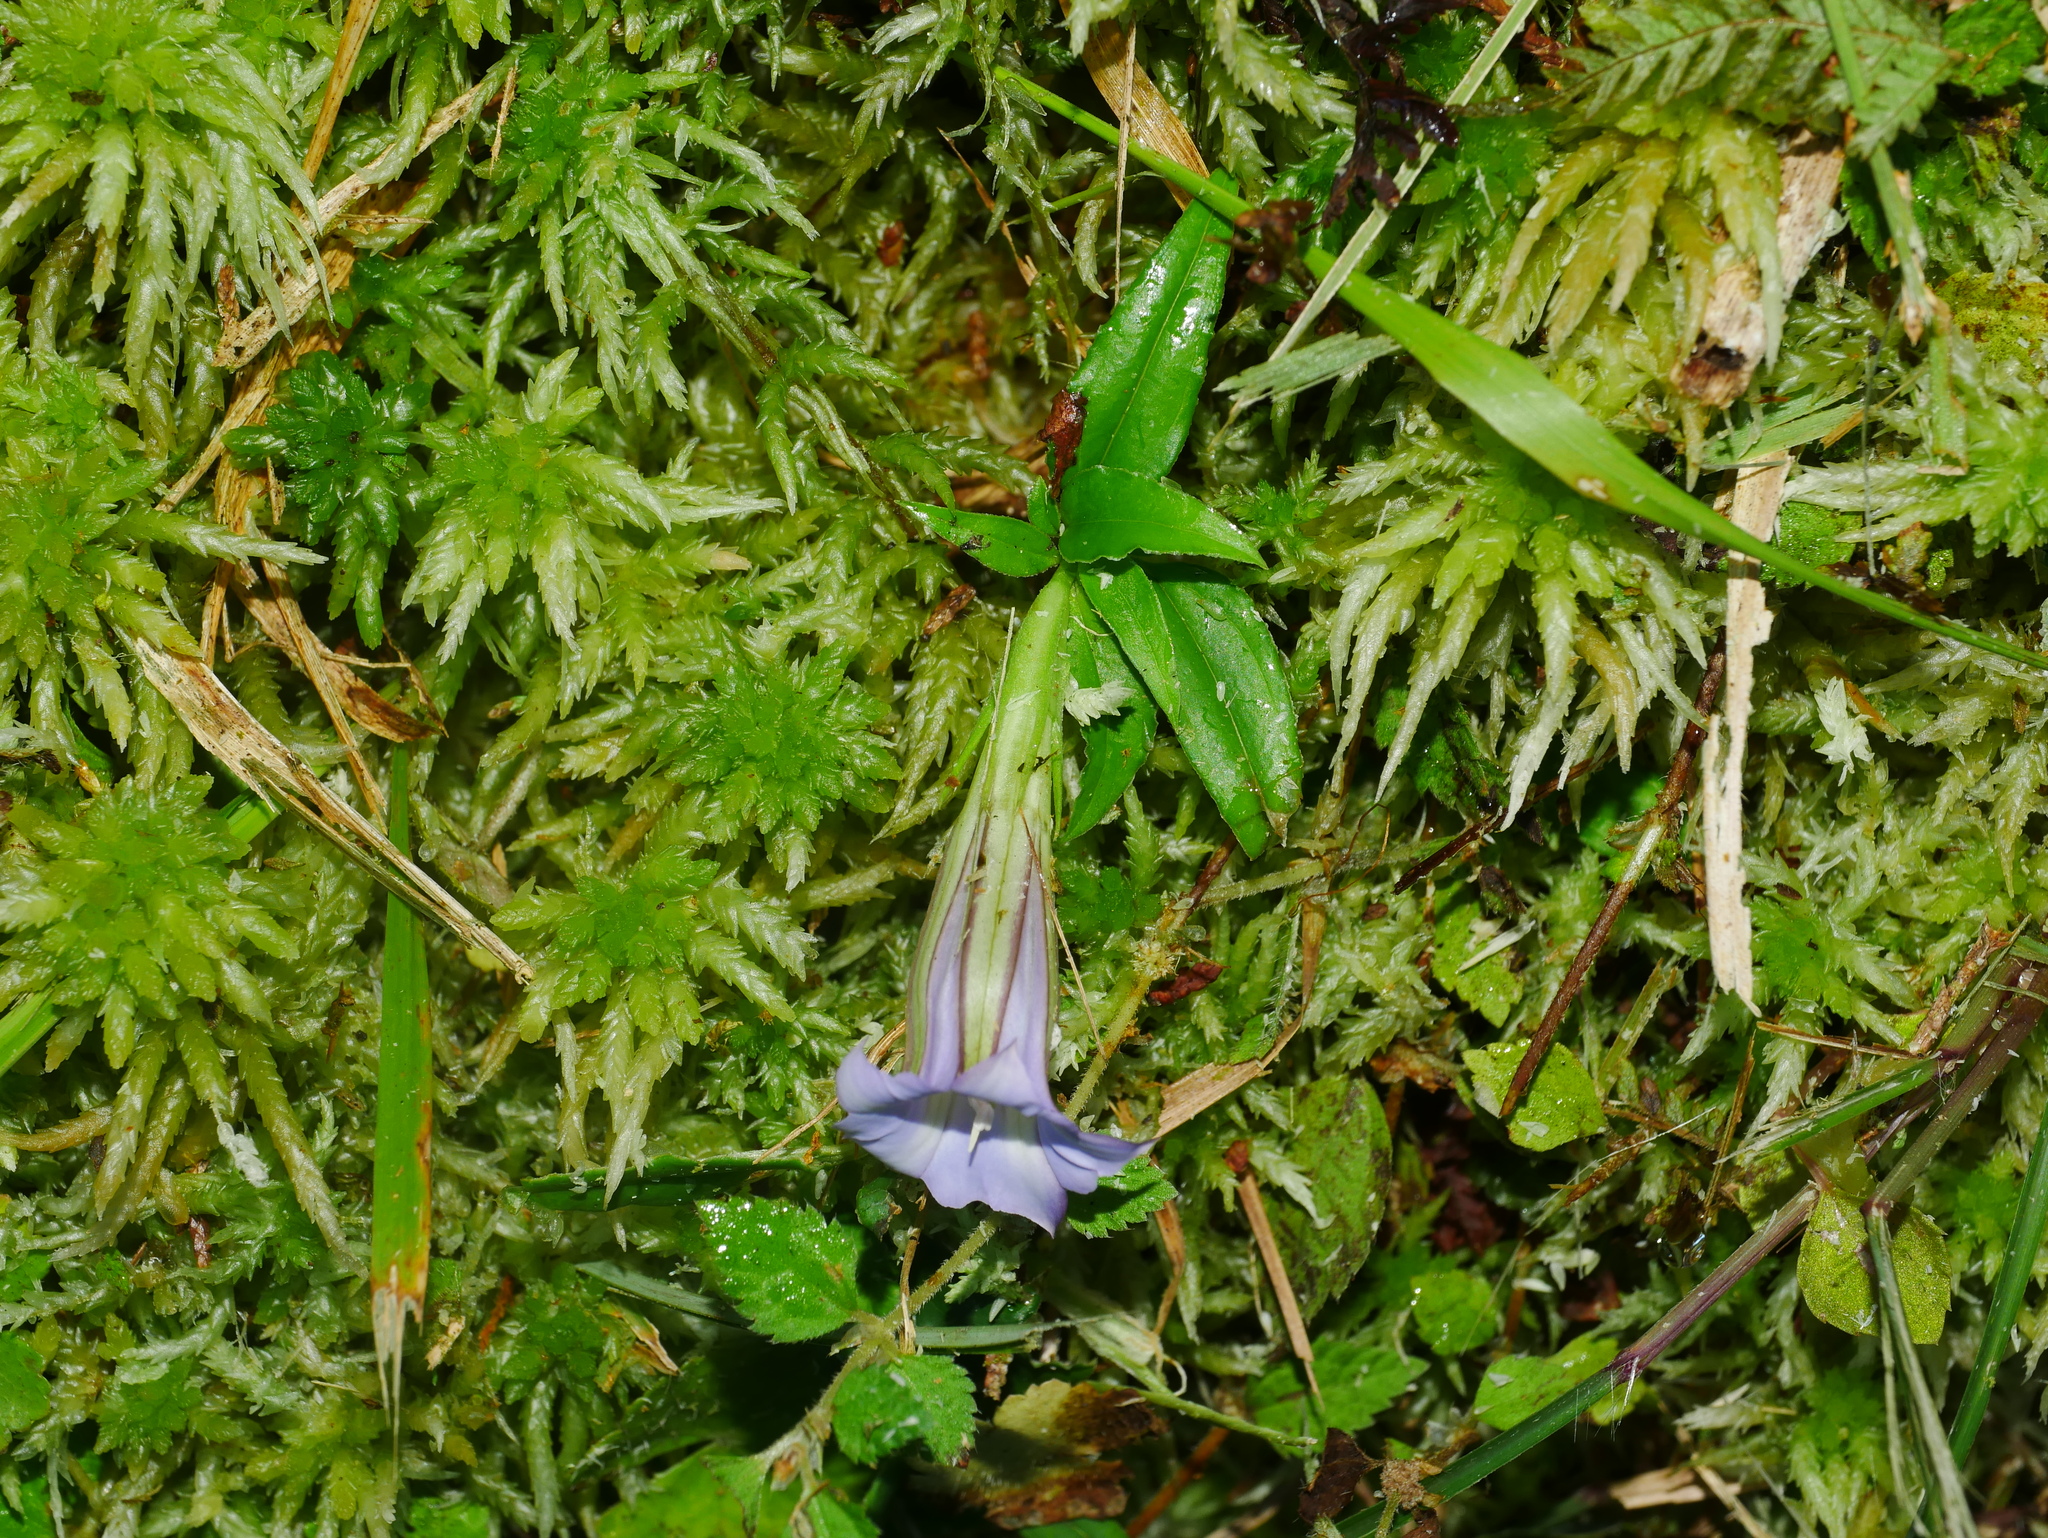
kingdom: Plantae
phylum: Tracheophyta
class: Magnoliopsida
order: Gentianales
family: Gentianaceae
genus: Tripterospermum
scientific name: Tripterospermum lanceolatum
